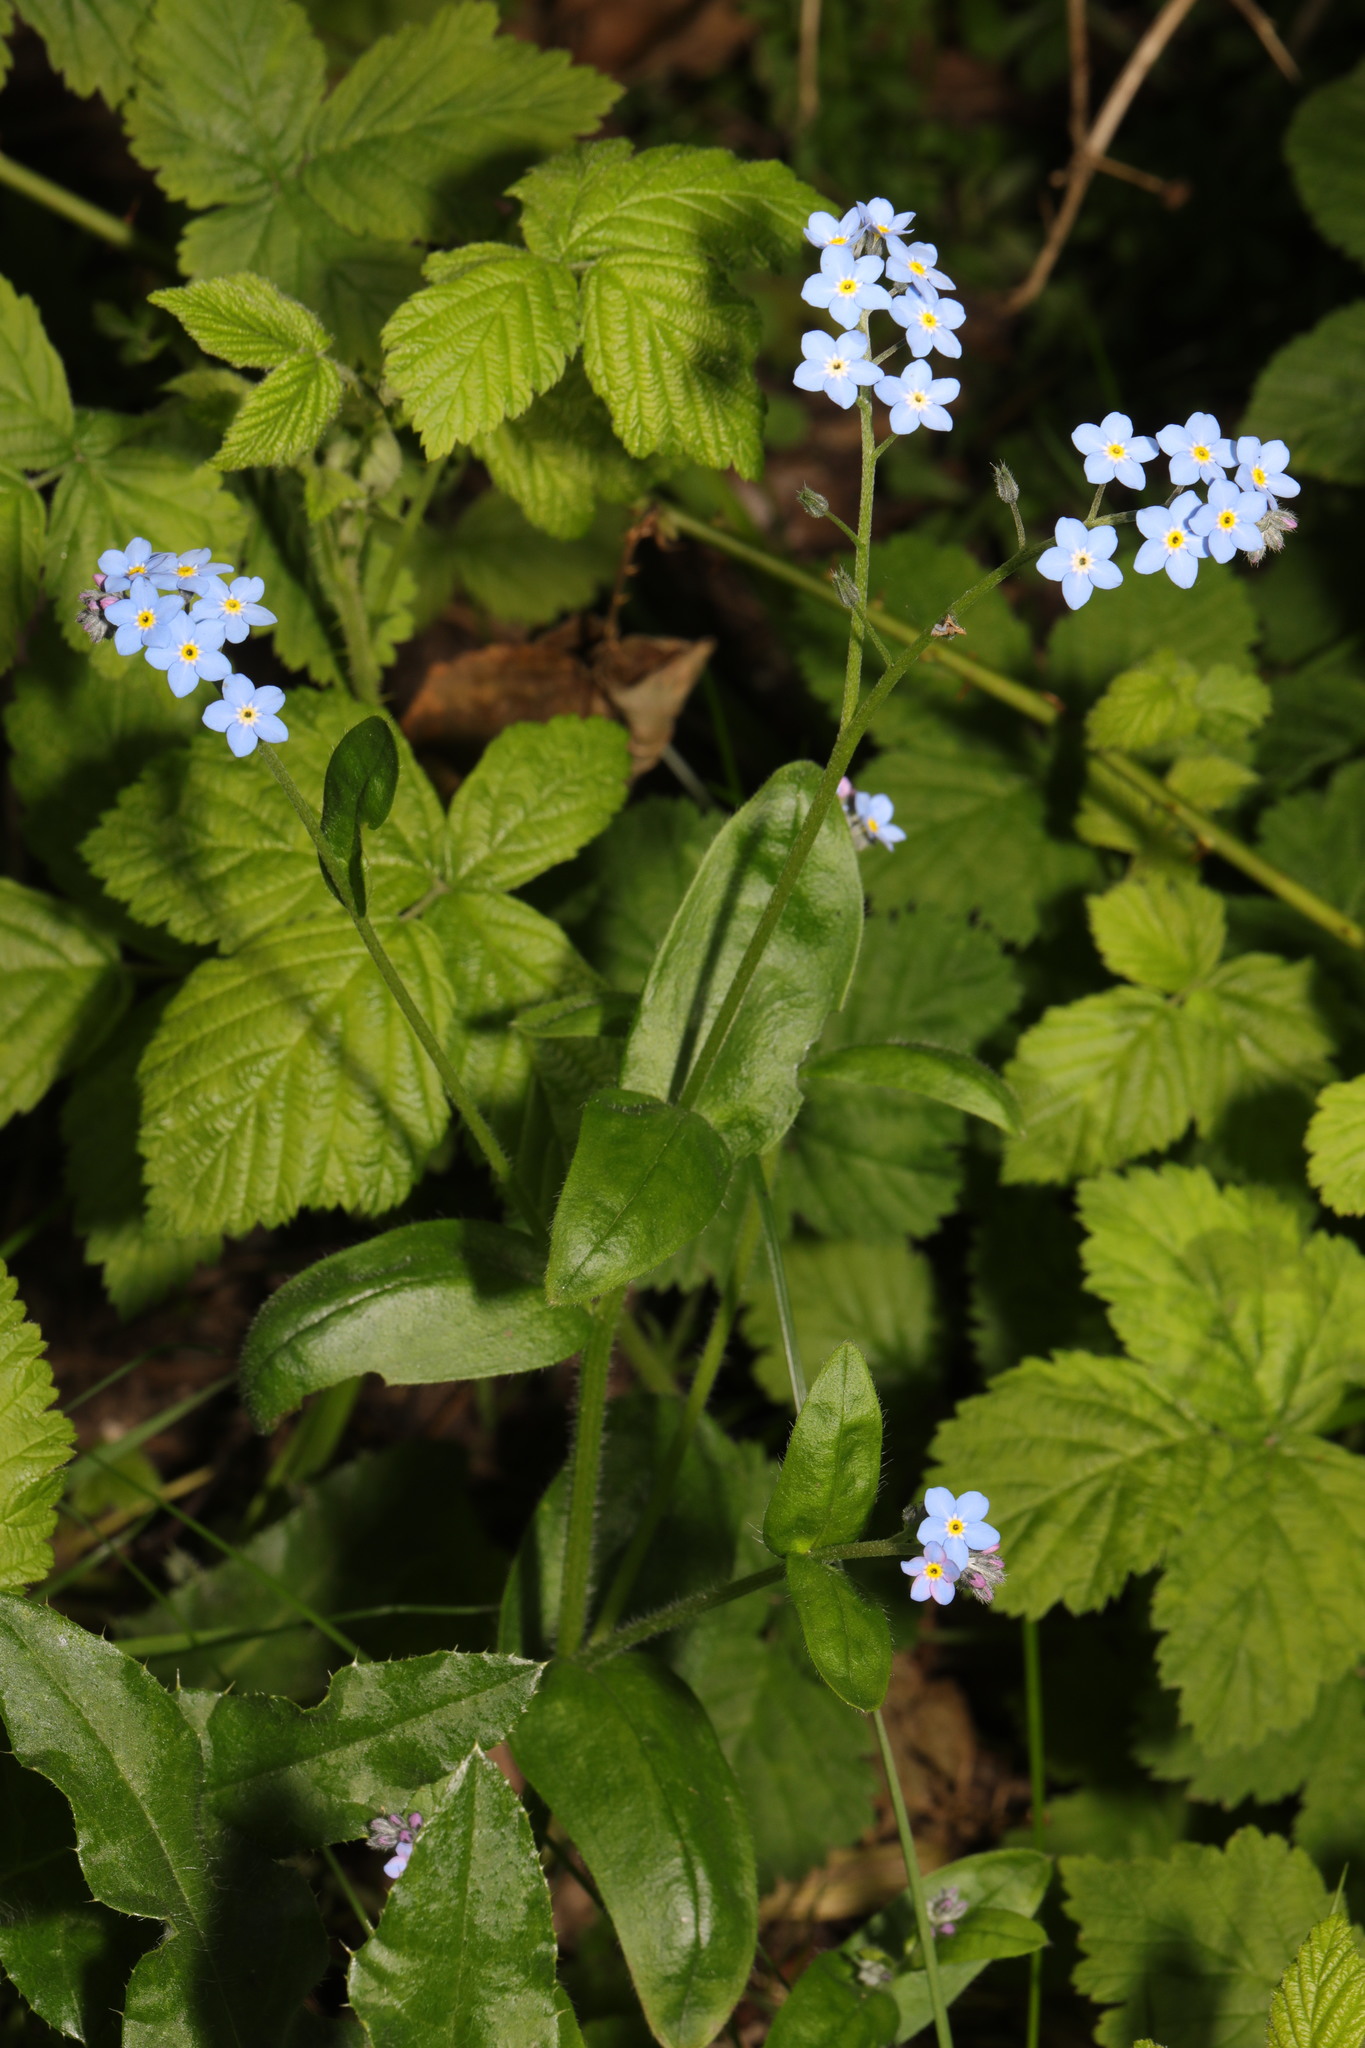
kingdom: Plantae
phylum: Tracheophyta
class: Magnoliopsida
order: Boraginales
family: Boraginaceae
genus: Myosotis
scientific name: Myosotis sylvatica
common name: Wood forget-me-not
